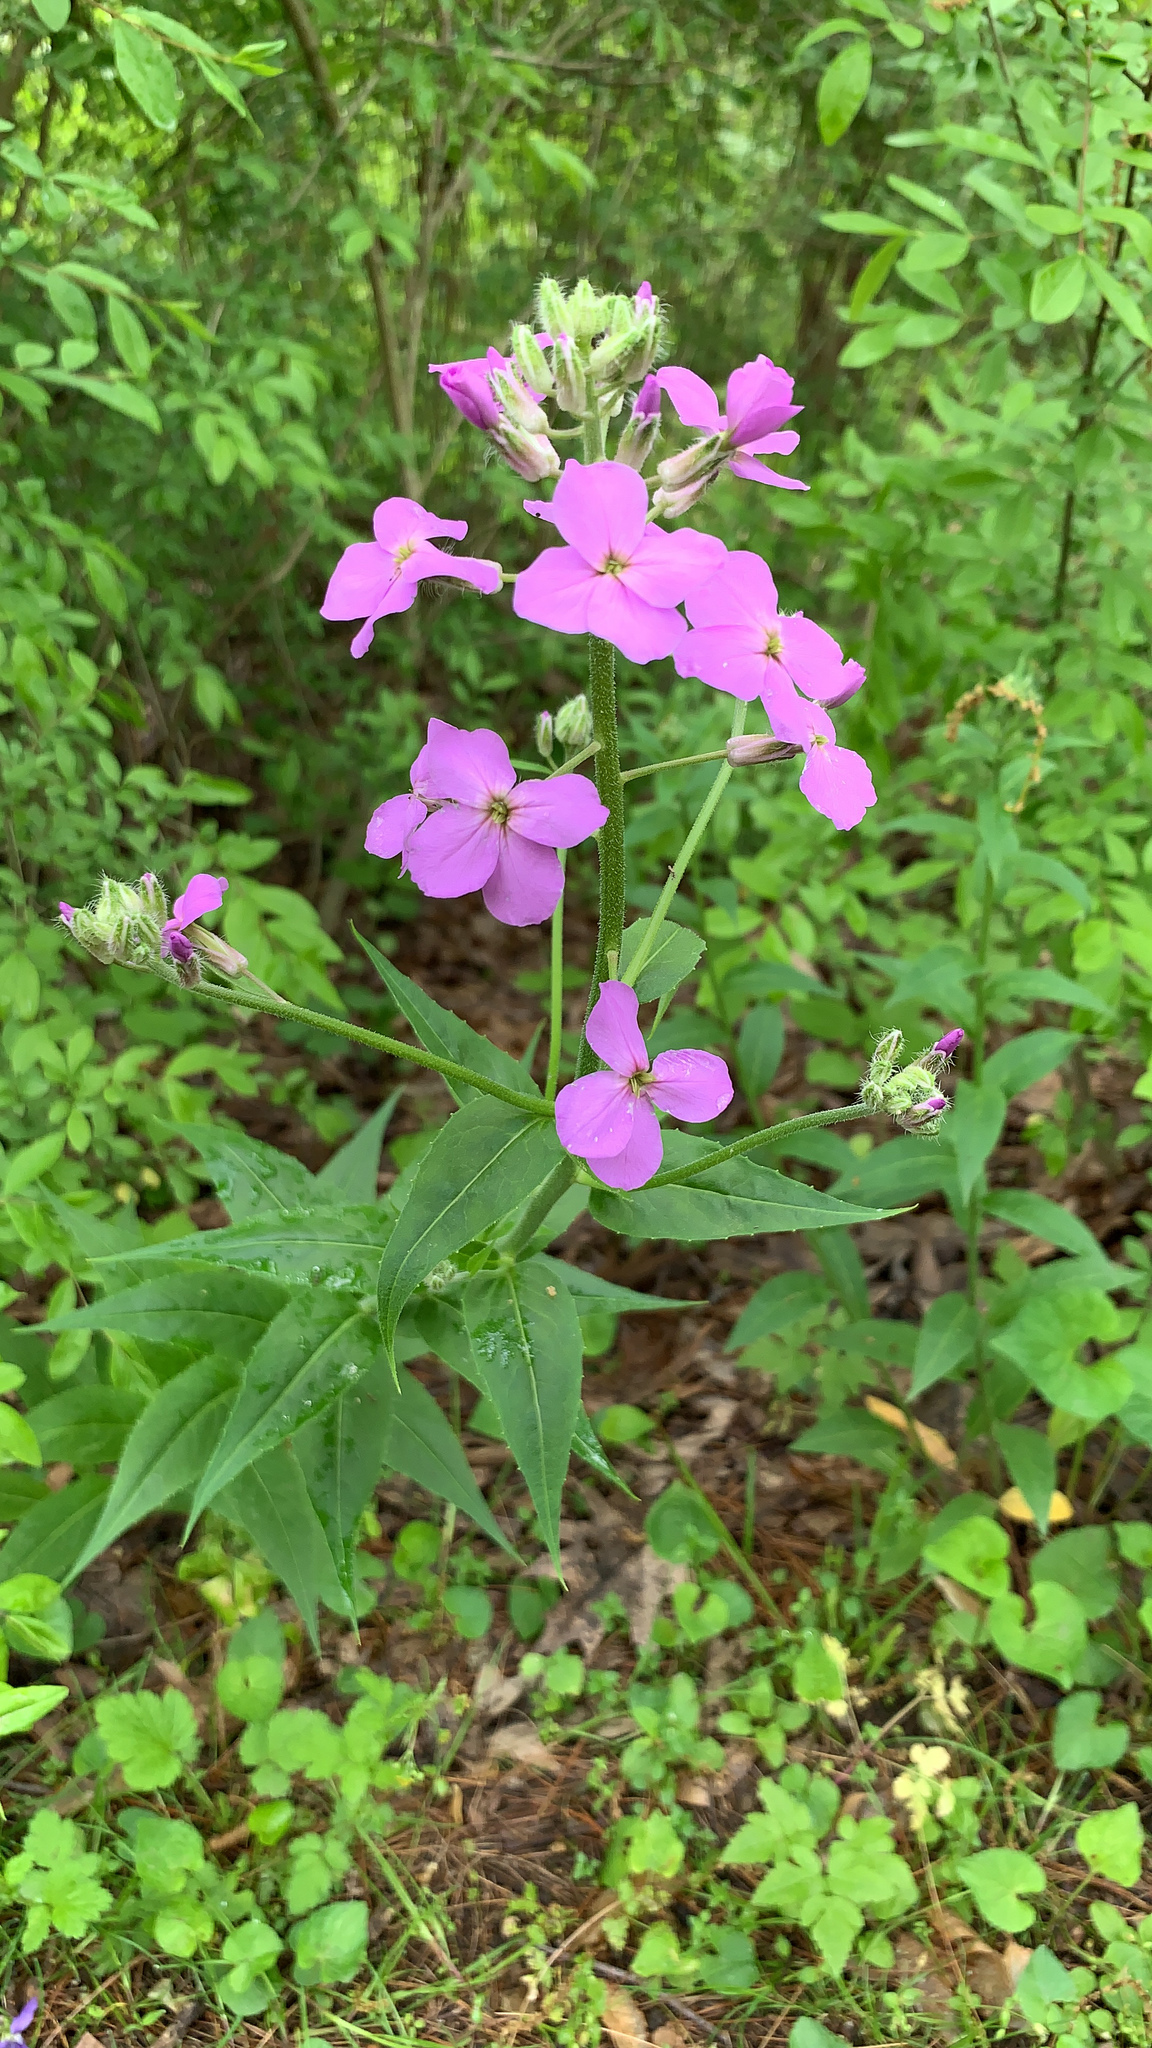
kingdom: Plantae
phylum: Tracheophyta
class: Magnoliopsida
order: Brassicales
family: Brassicaceae
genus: Hesperis
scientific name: Hesperis matronalis
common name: Dame's-violet
